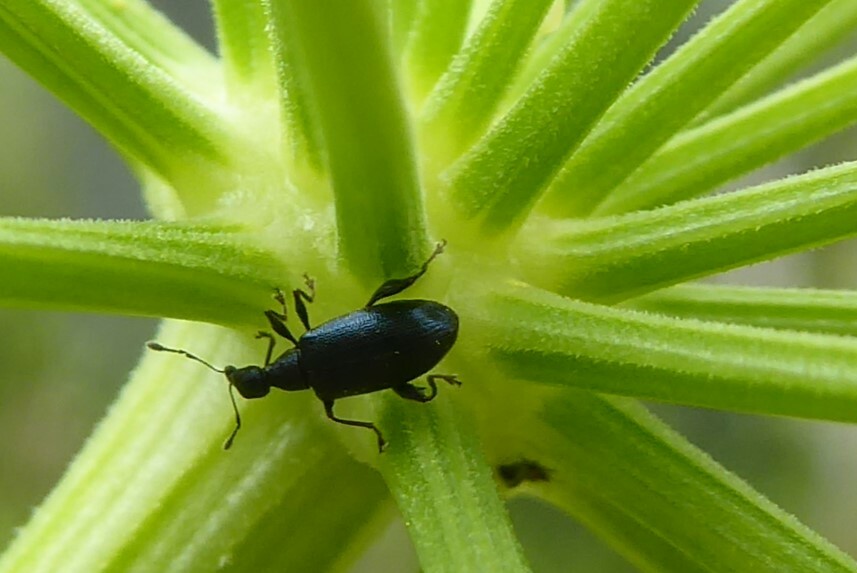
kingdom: Animalia
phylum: Arthropoda
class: Insecta
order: Coleoptera
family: Curculionidae
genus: Hoplocneme
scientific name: Hoplocneme punctatissima
